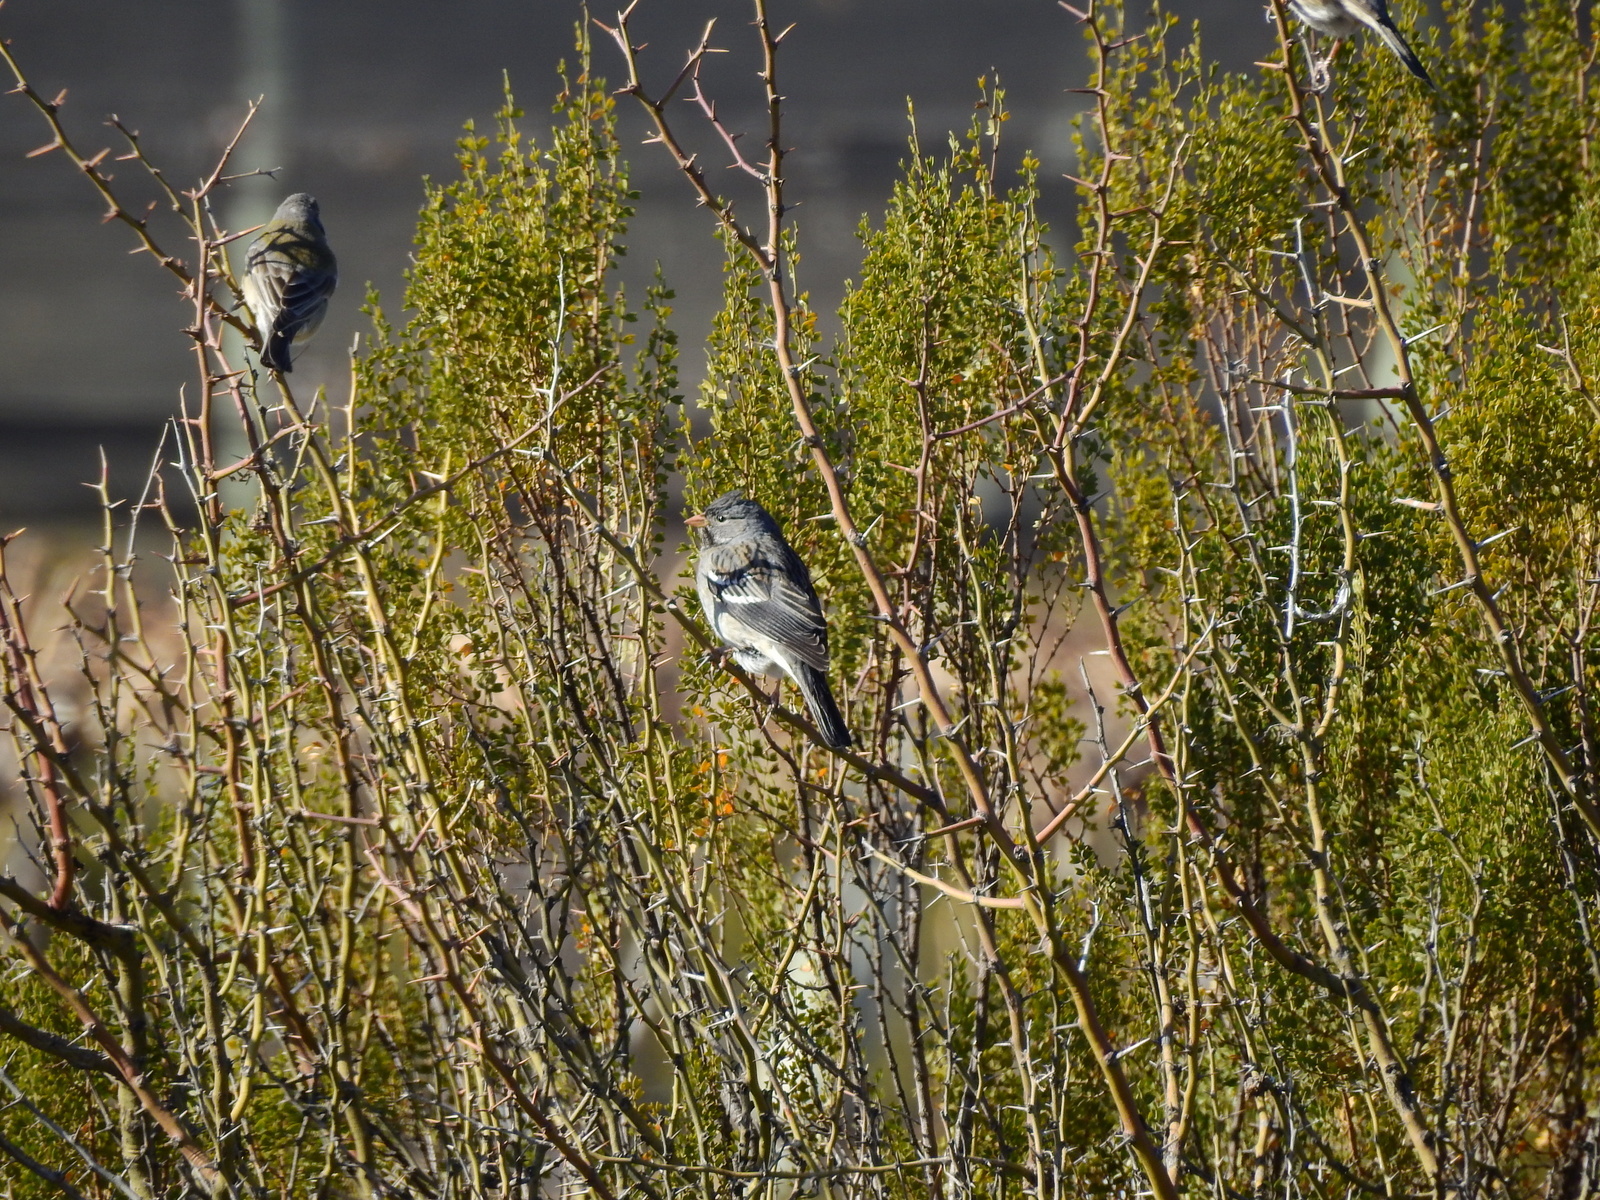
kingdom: Animalia
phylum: Chordata
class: Aves
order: Passeriformes
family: Thraupidae
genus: Rhopospina
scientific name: Rhopospina fruticeti
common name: Mourning sierra finch
